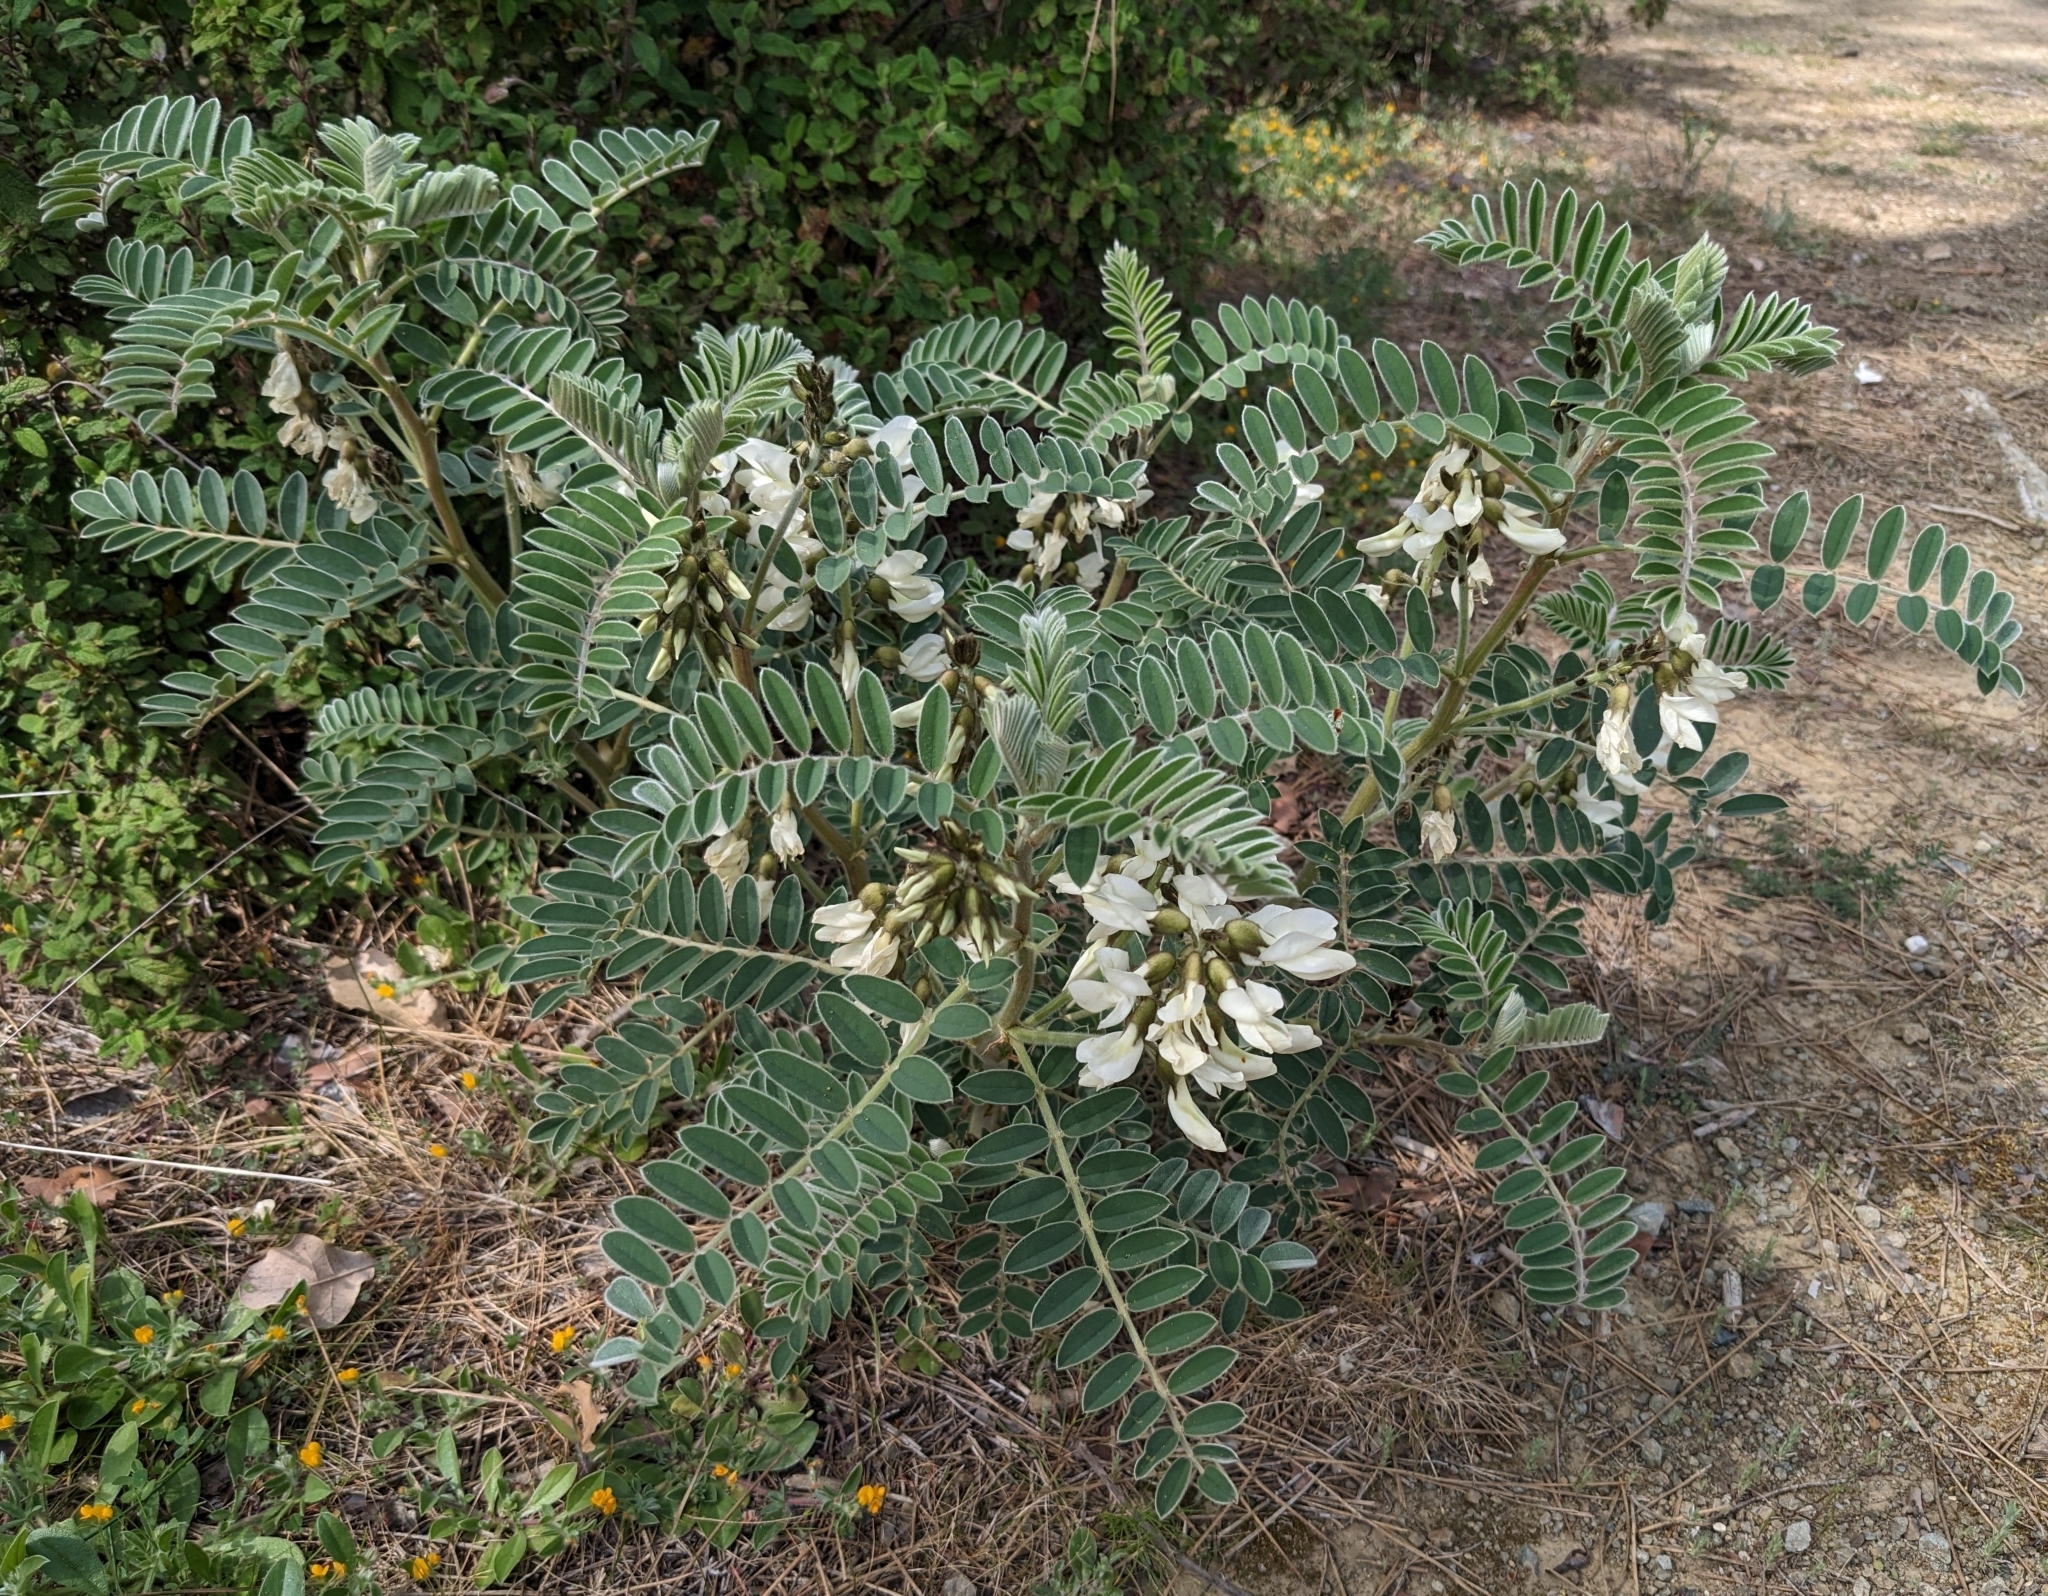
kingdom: Plantae
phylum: Tracheophyta
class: Magnoliopsida
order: Fabales
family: Fabaceae
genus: Erophaca
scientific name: Erophaca baetica
